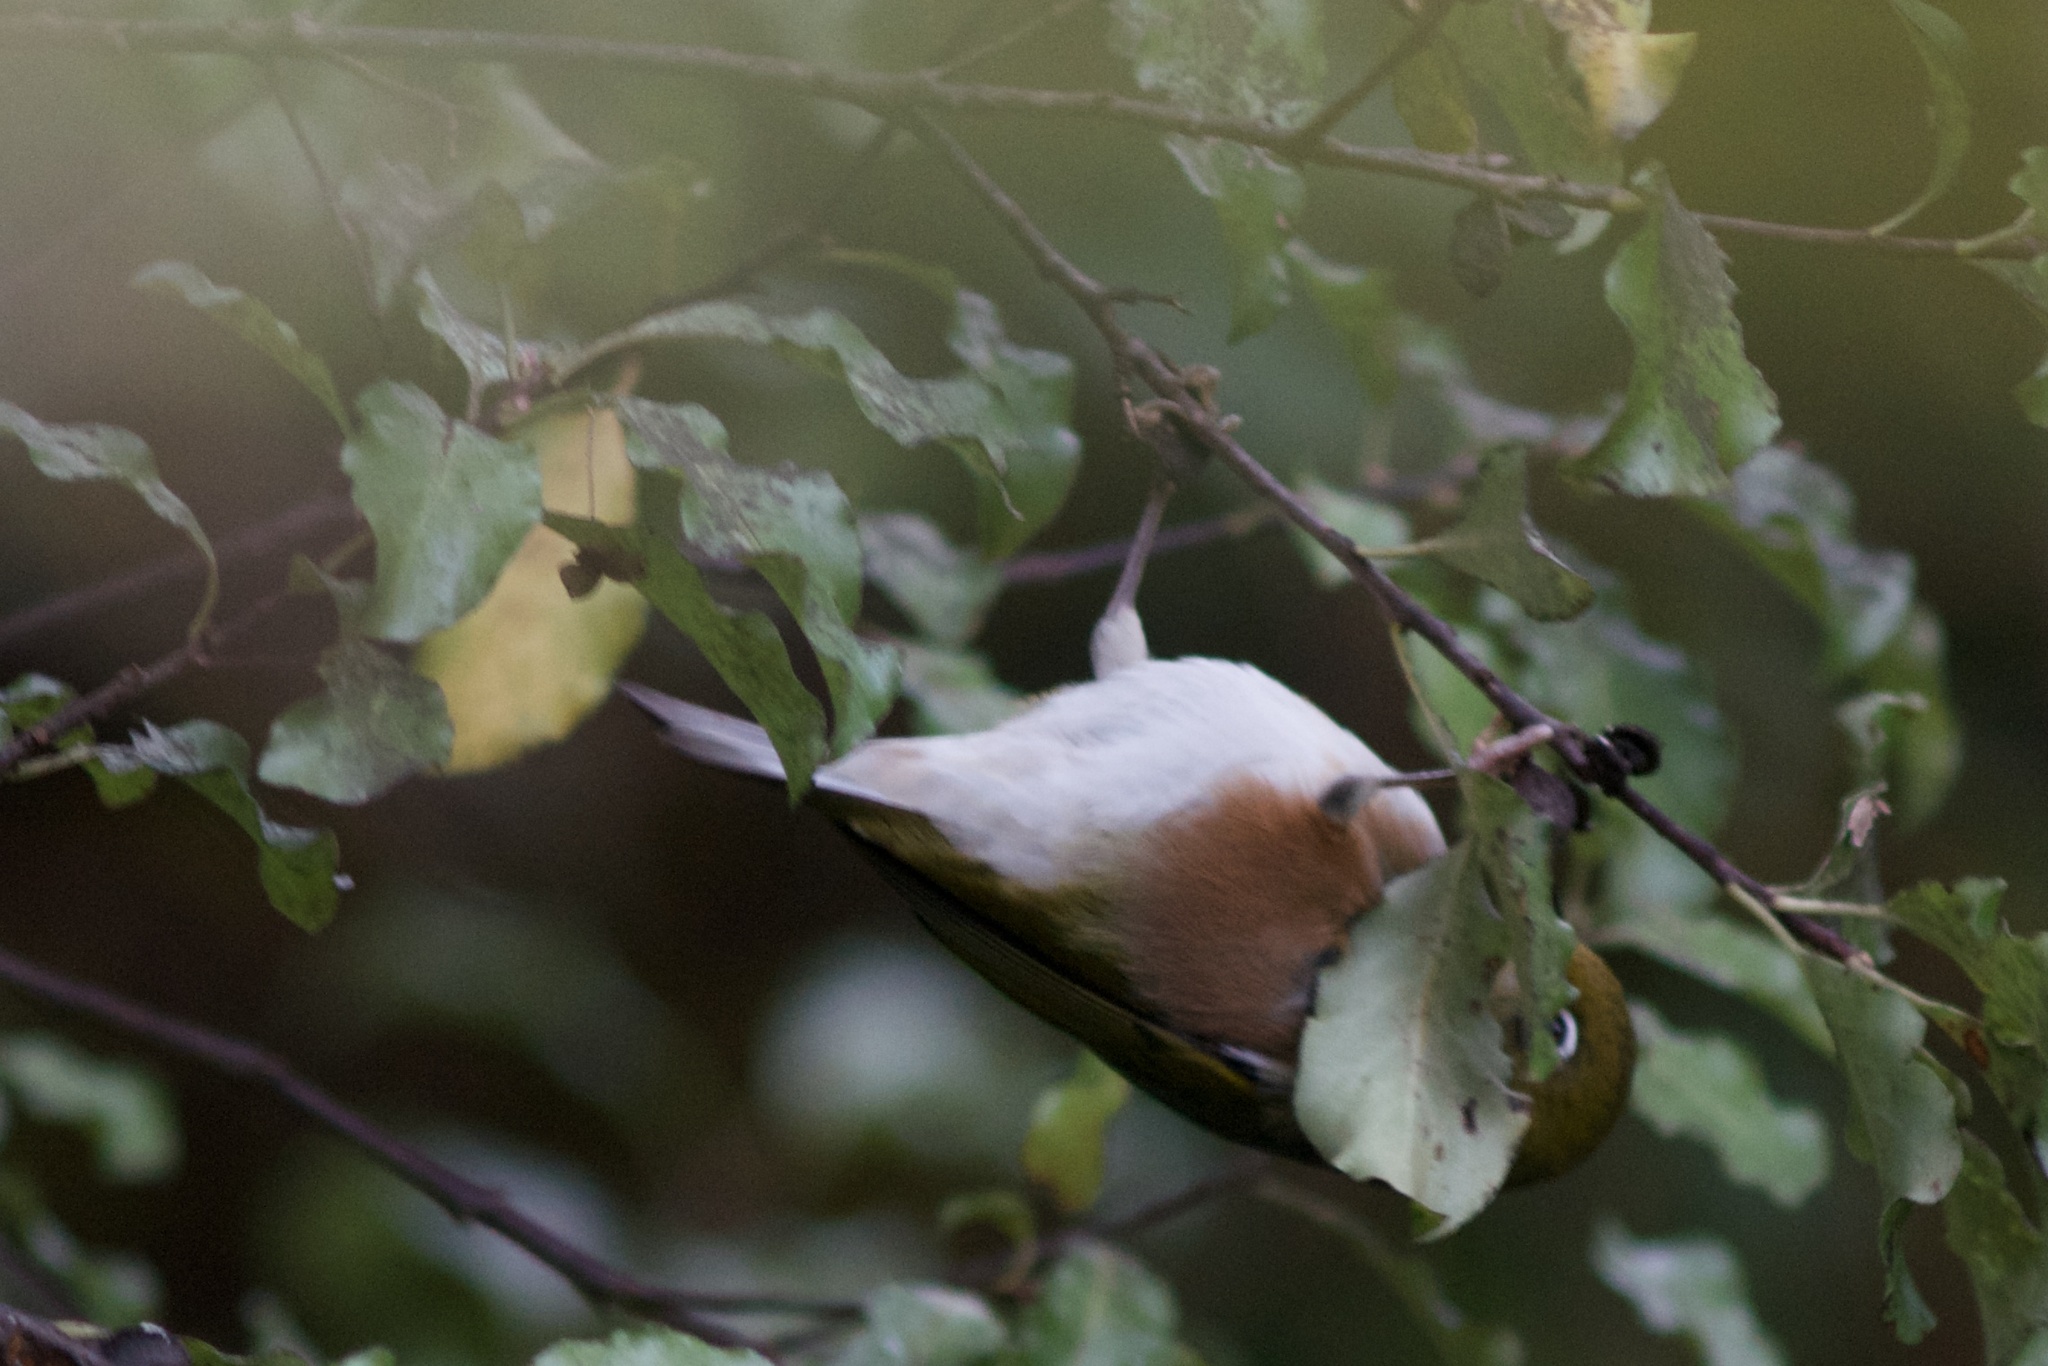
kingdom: Animalia
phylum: Chordata
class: Aves
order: Passeriformes
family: Zosteropidae
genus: Zosterops
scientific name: Zosterops lateralis
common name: Silvereye
